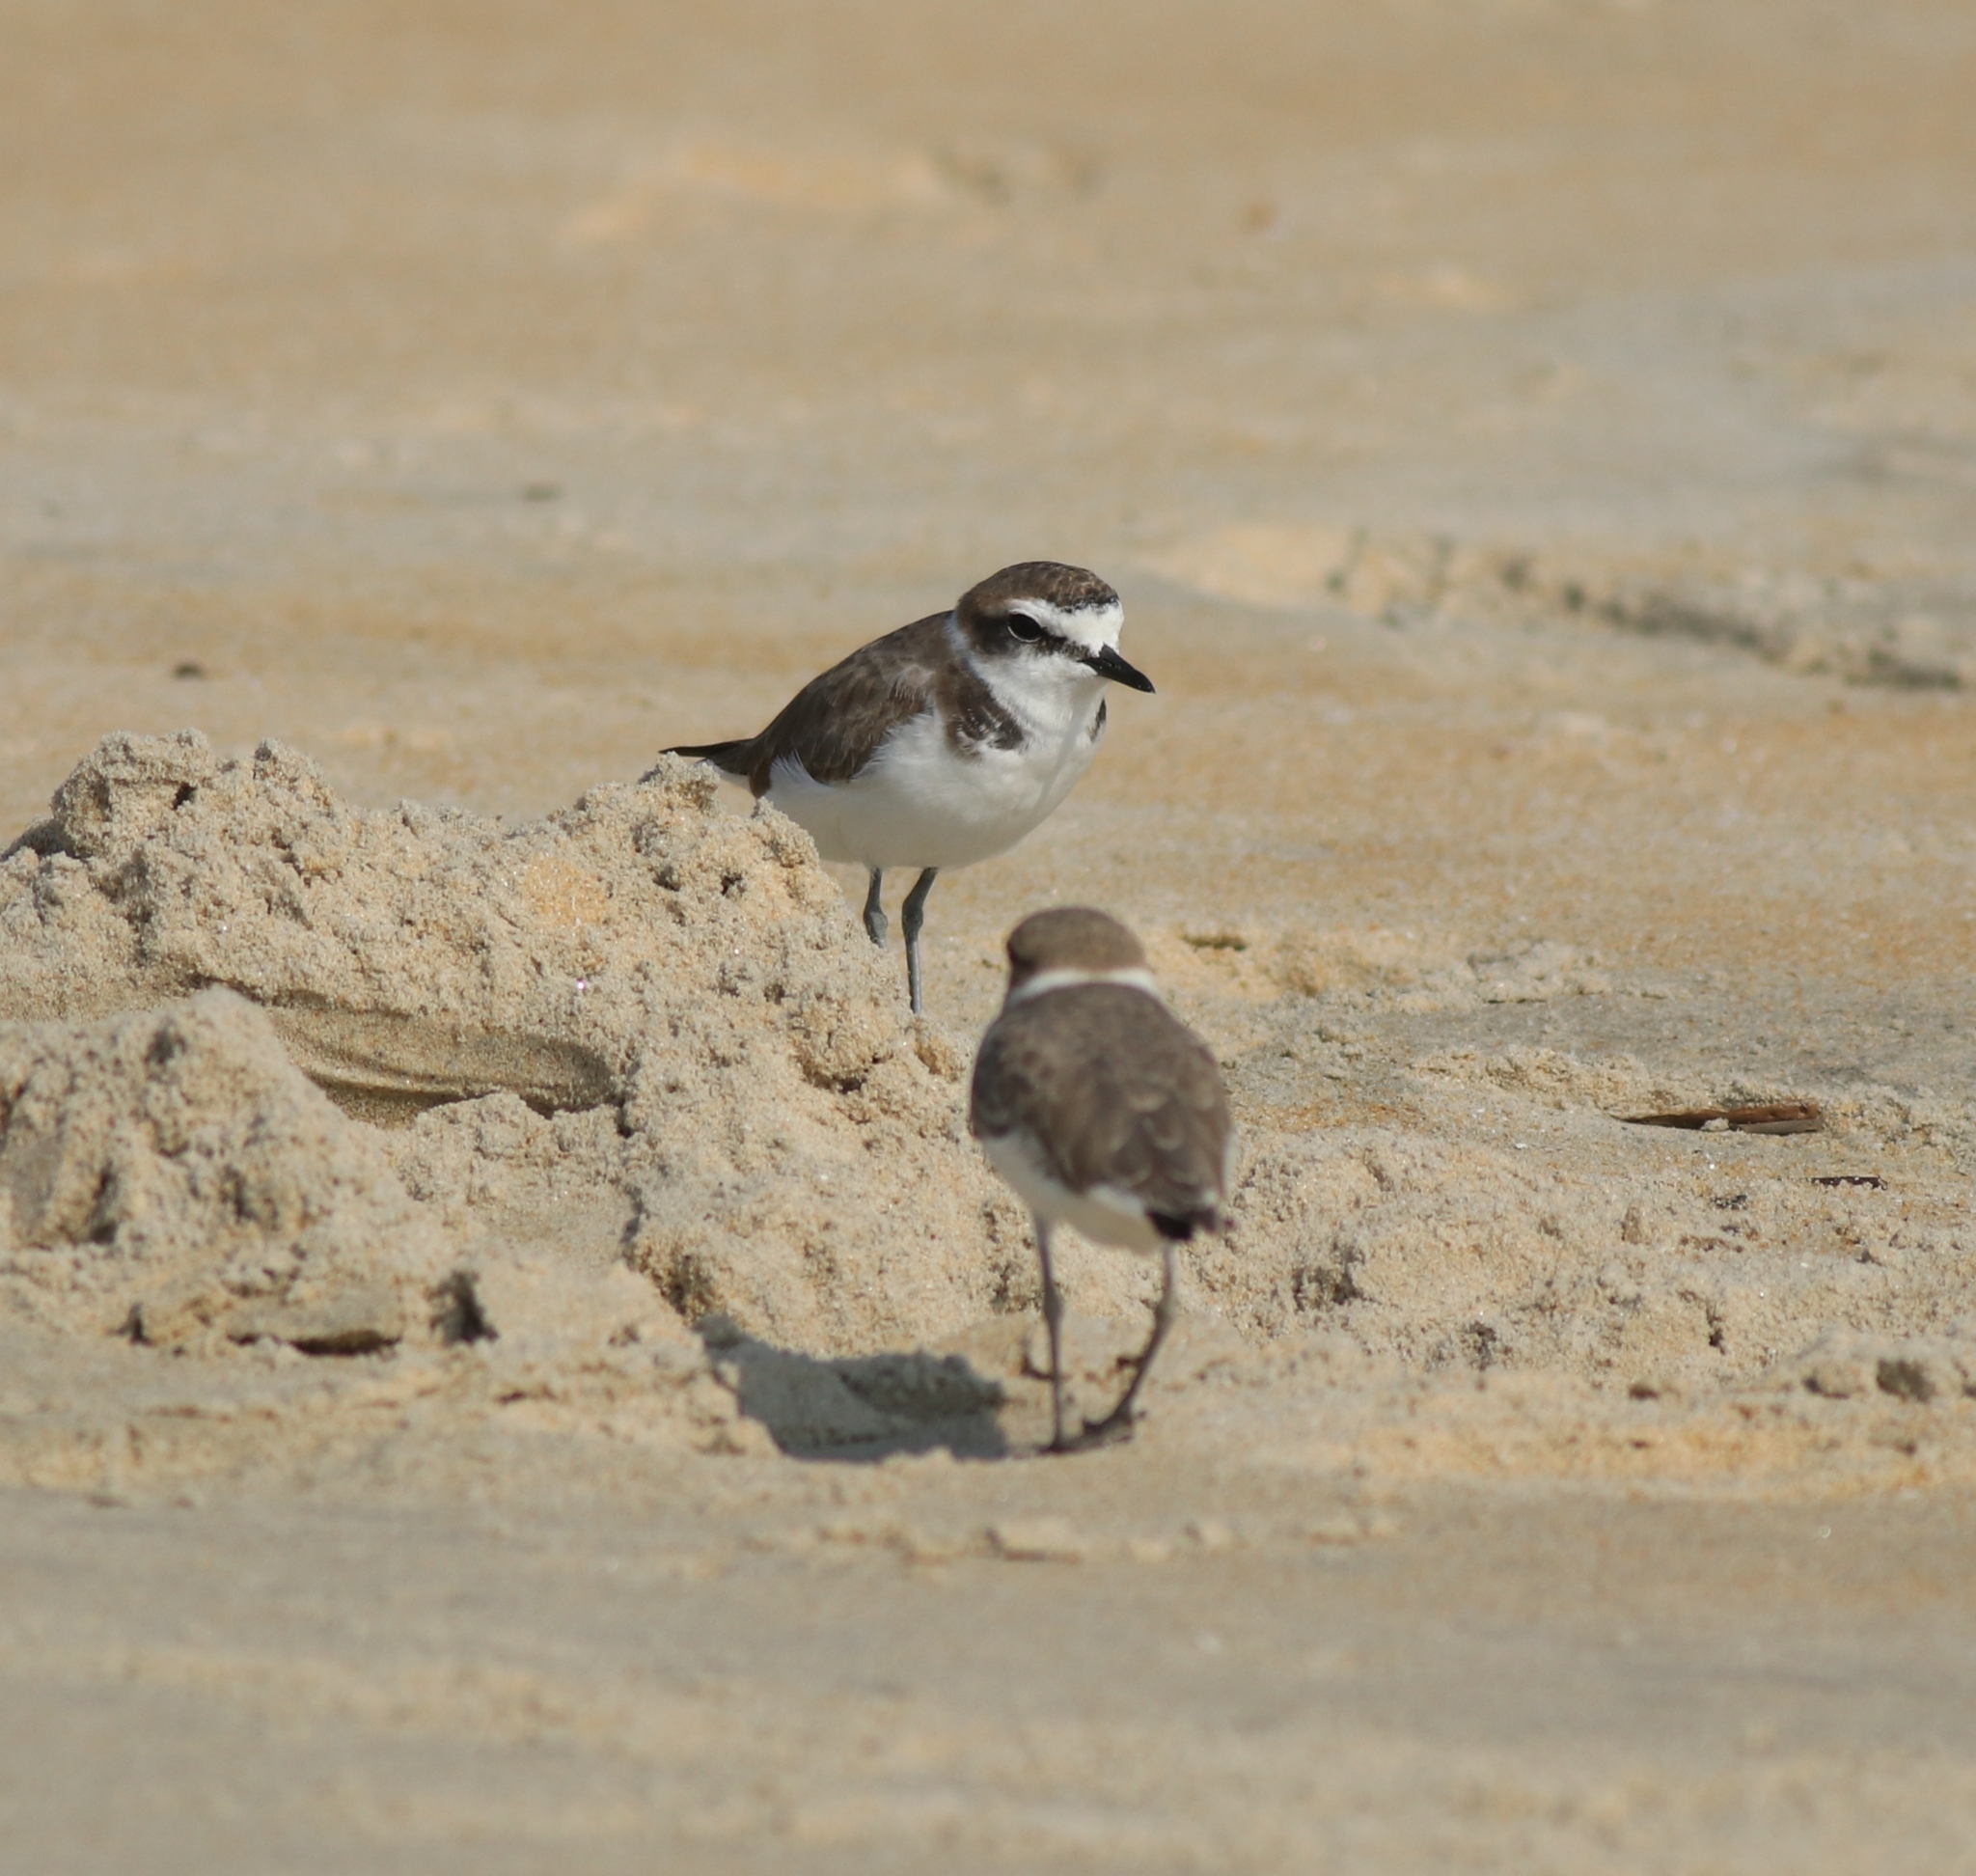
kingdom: Animalia
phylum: Chordata
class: Aves
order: Charadriiformes
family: Charadriidae
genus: Charadrius
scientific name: Charadrius alexandrinus
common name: Kentish plover
